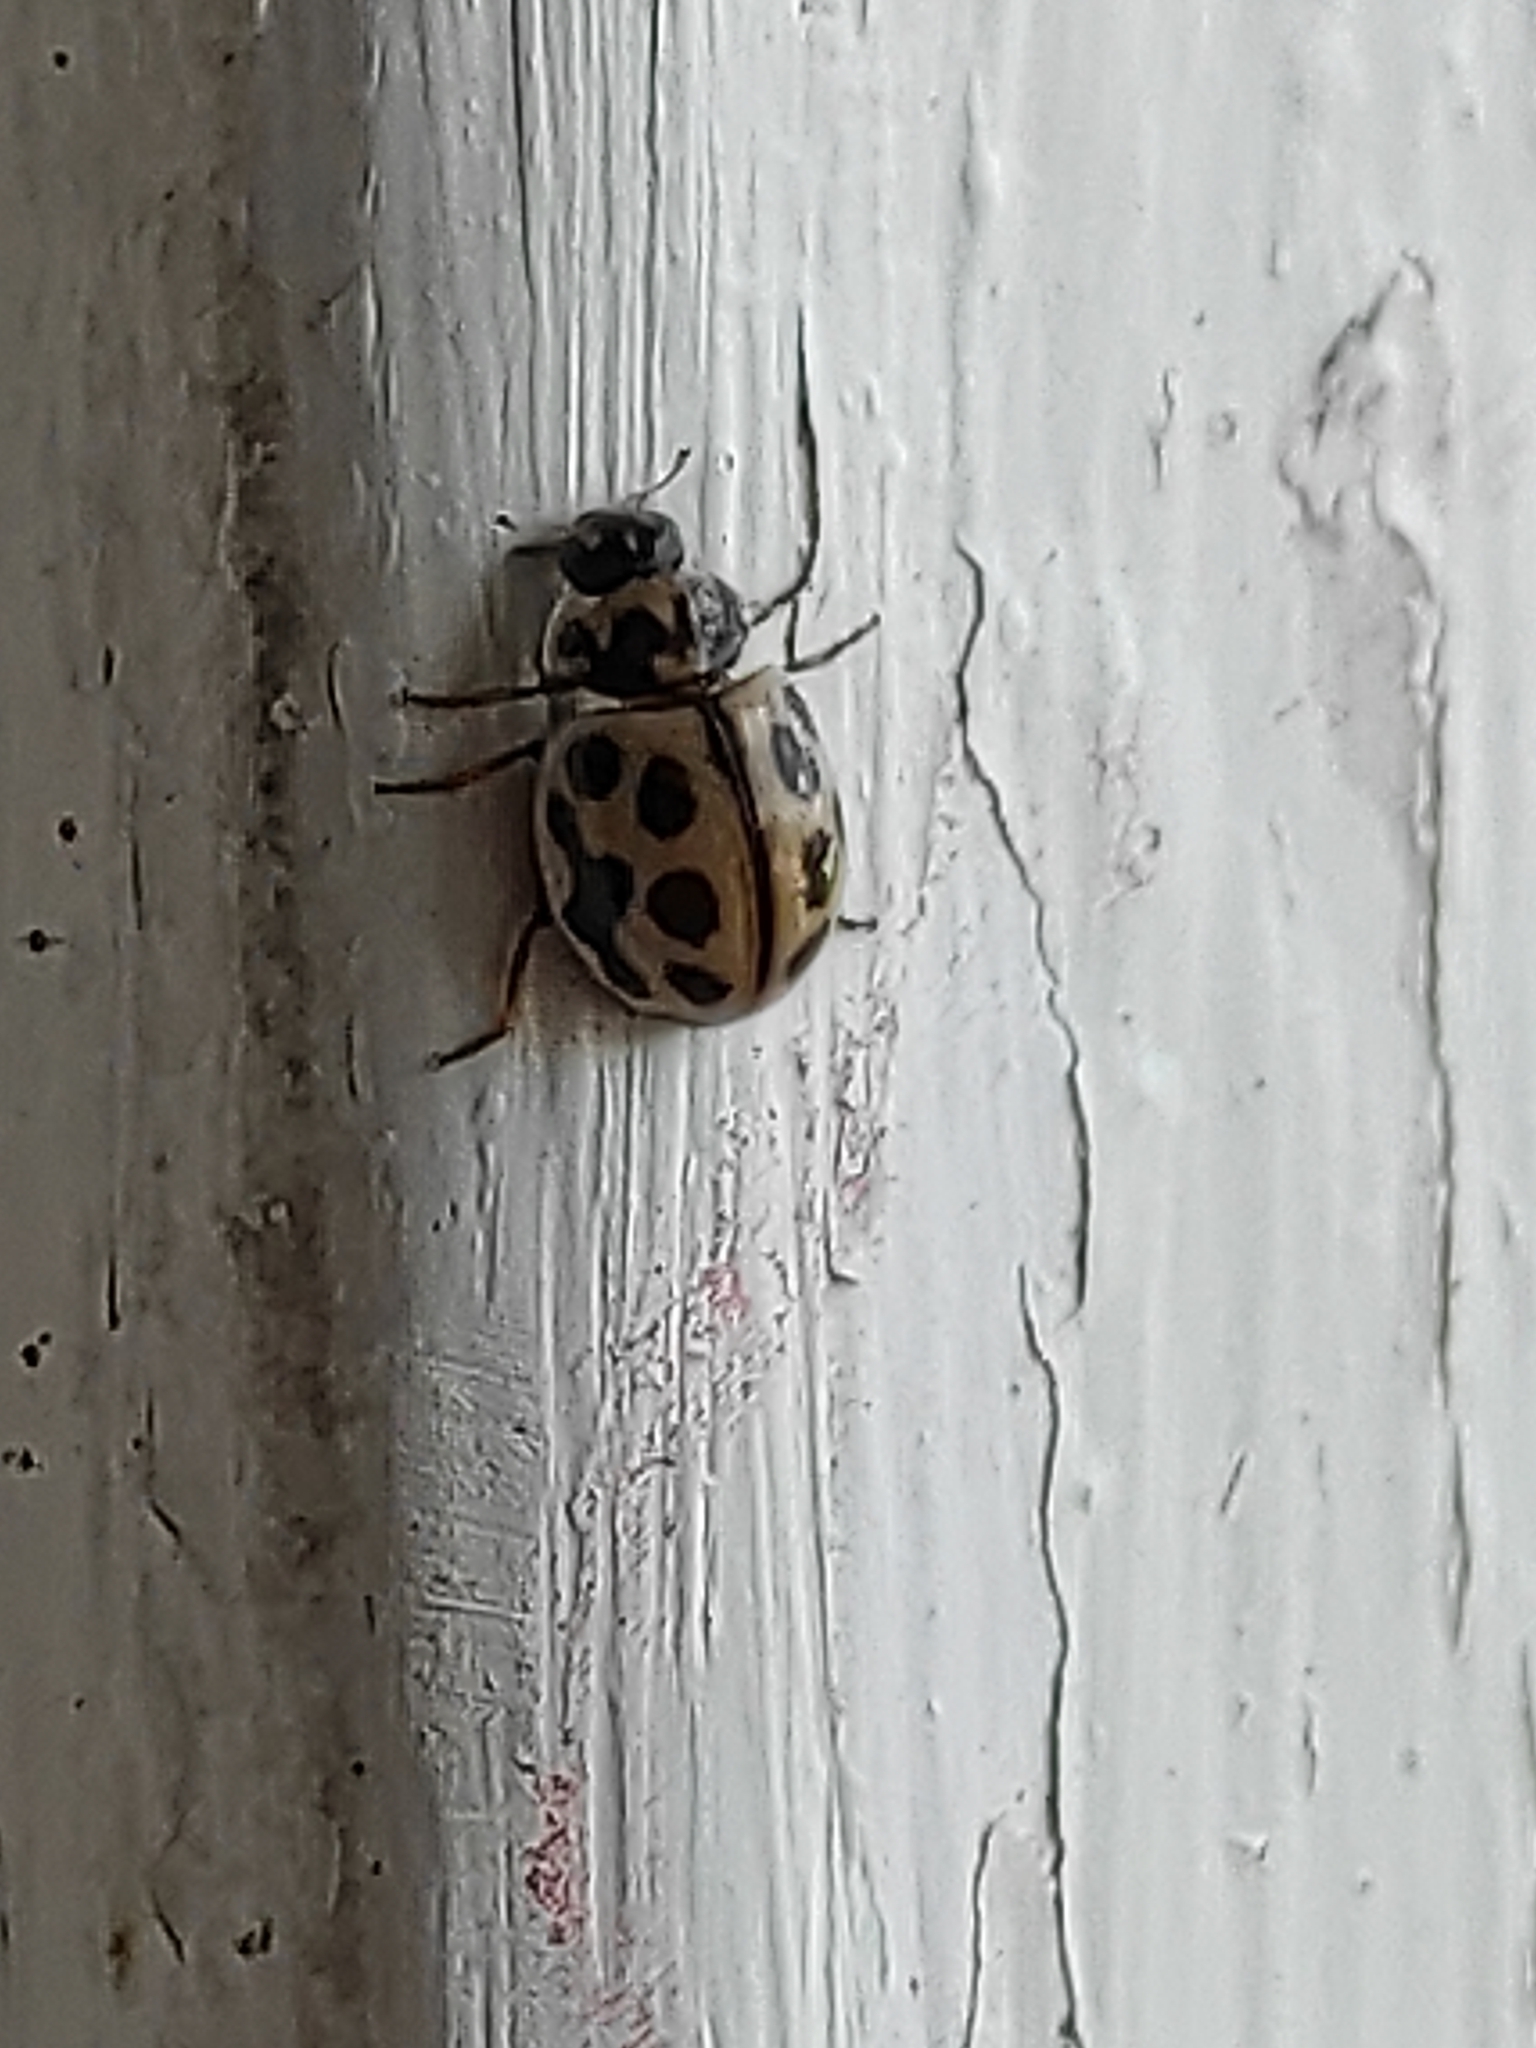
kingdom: Animalia
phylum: Arthropoda
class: Insecta
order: Coleoptera
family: Coccinellidae
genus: Tytthaspis
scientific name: Tytthaspis sedecimpunctata
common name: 16-spot ladybird
